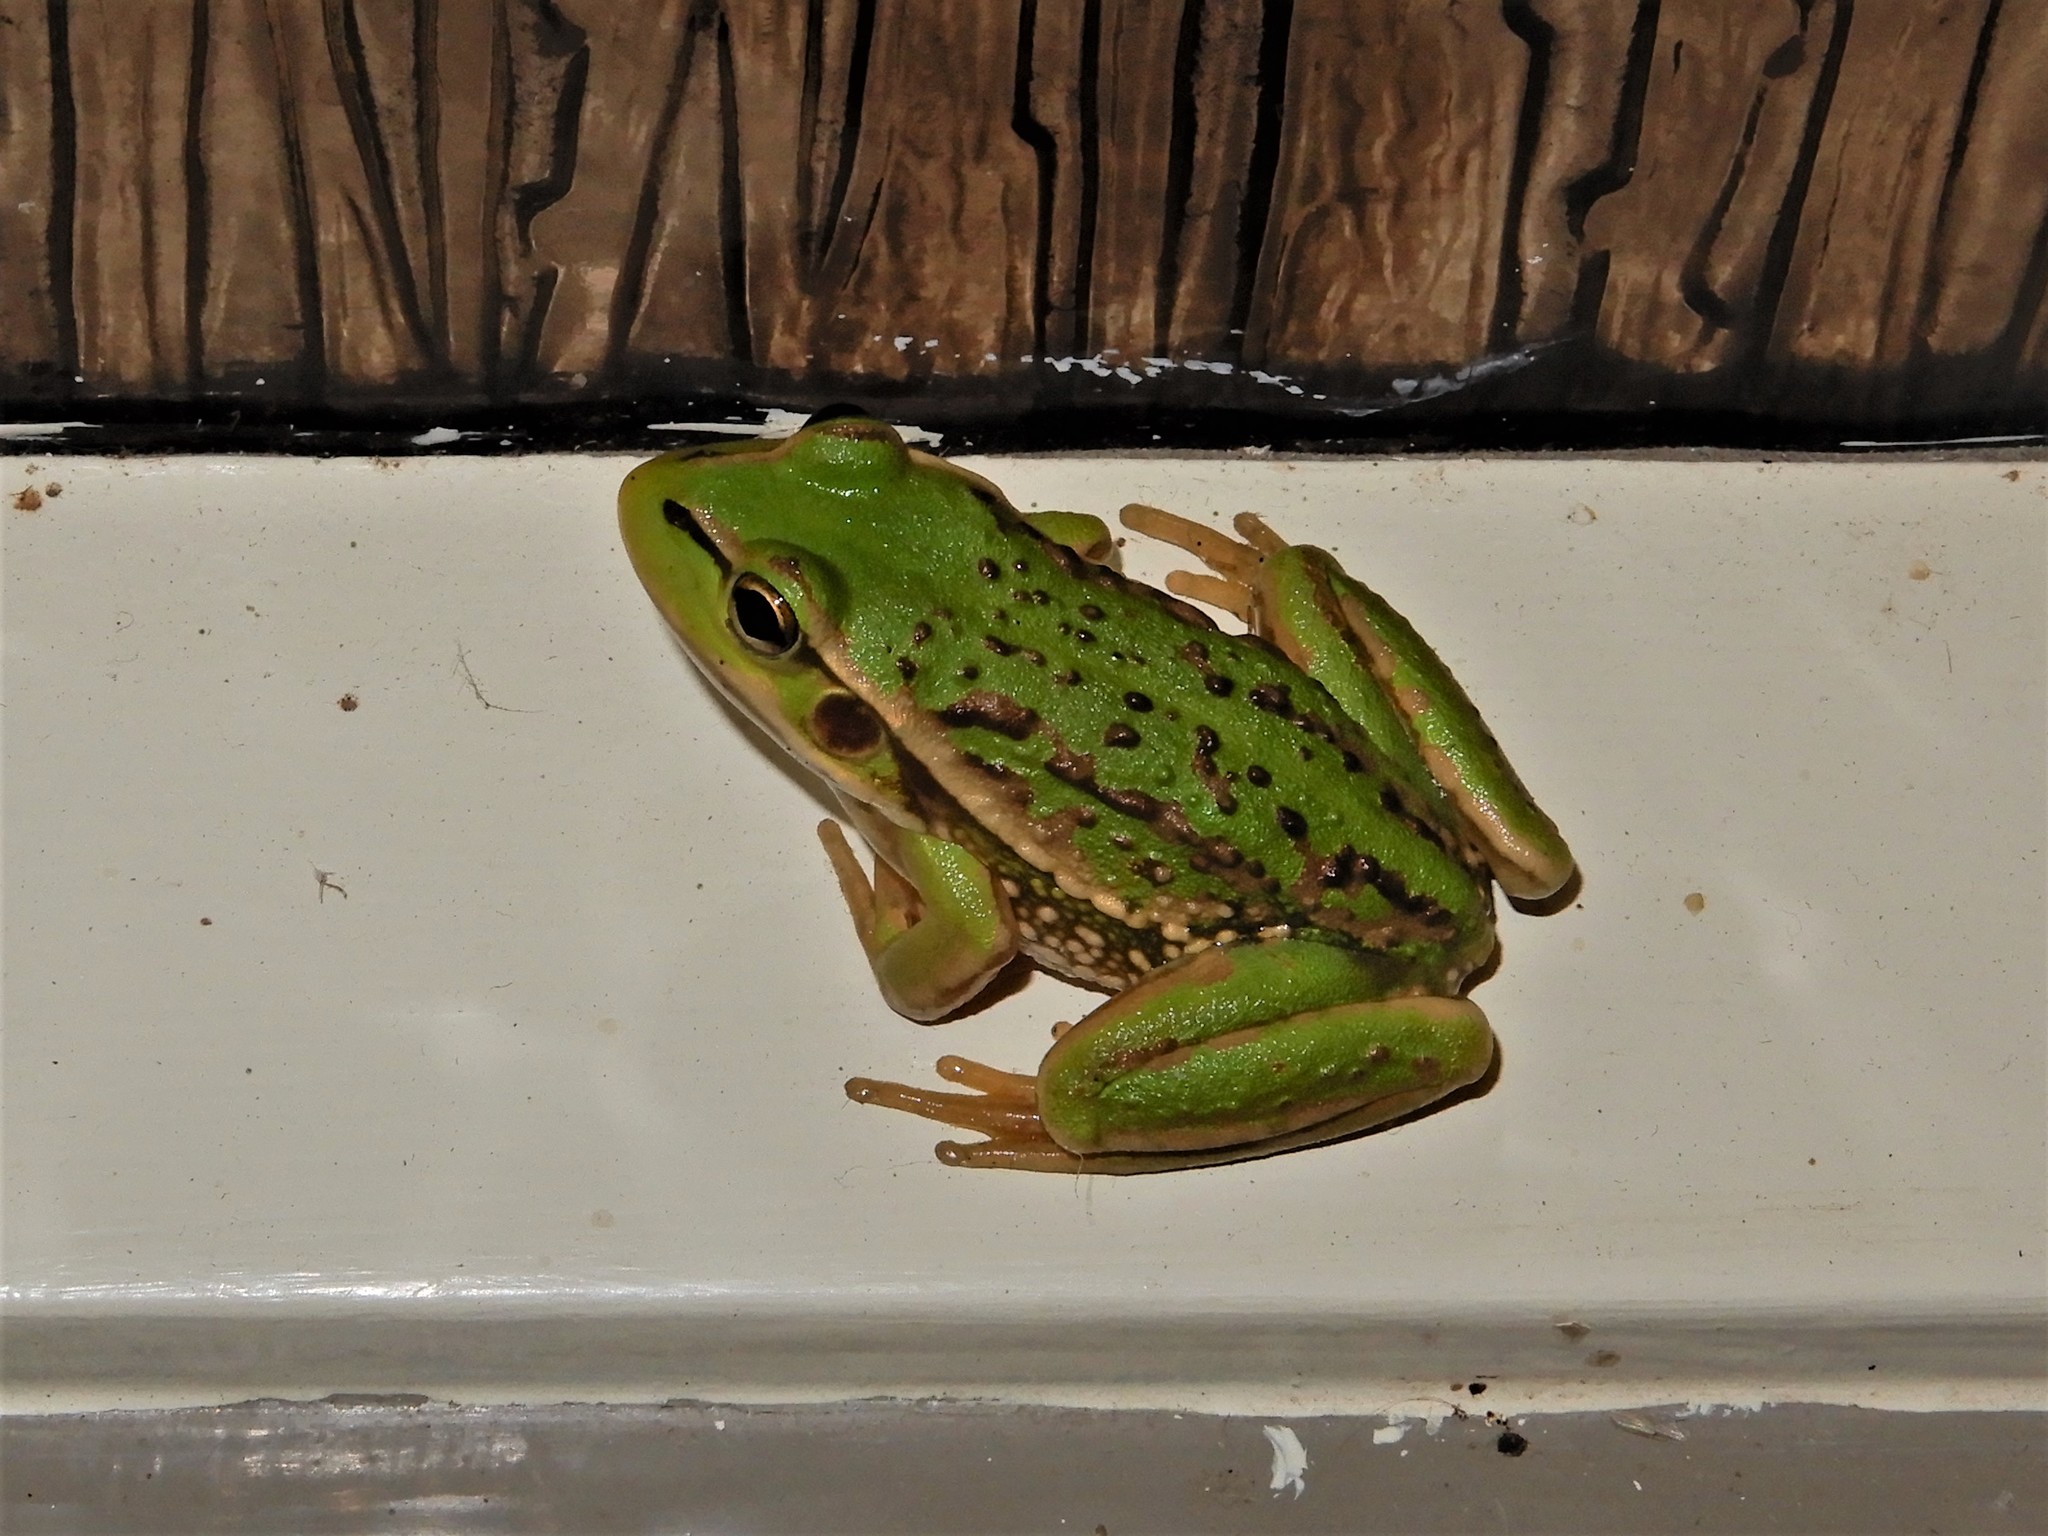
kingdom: Animalia
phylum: Chordata
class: Amphibia
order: Anura
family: Pelodryadidae
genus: Ranoidea
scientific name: Ranoidea raniformis
